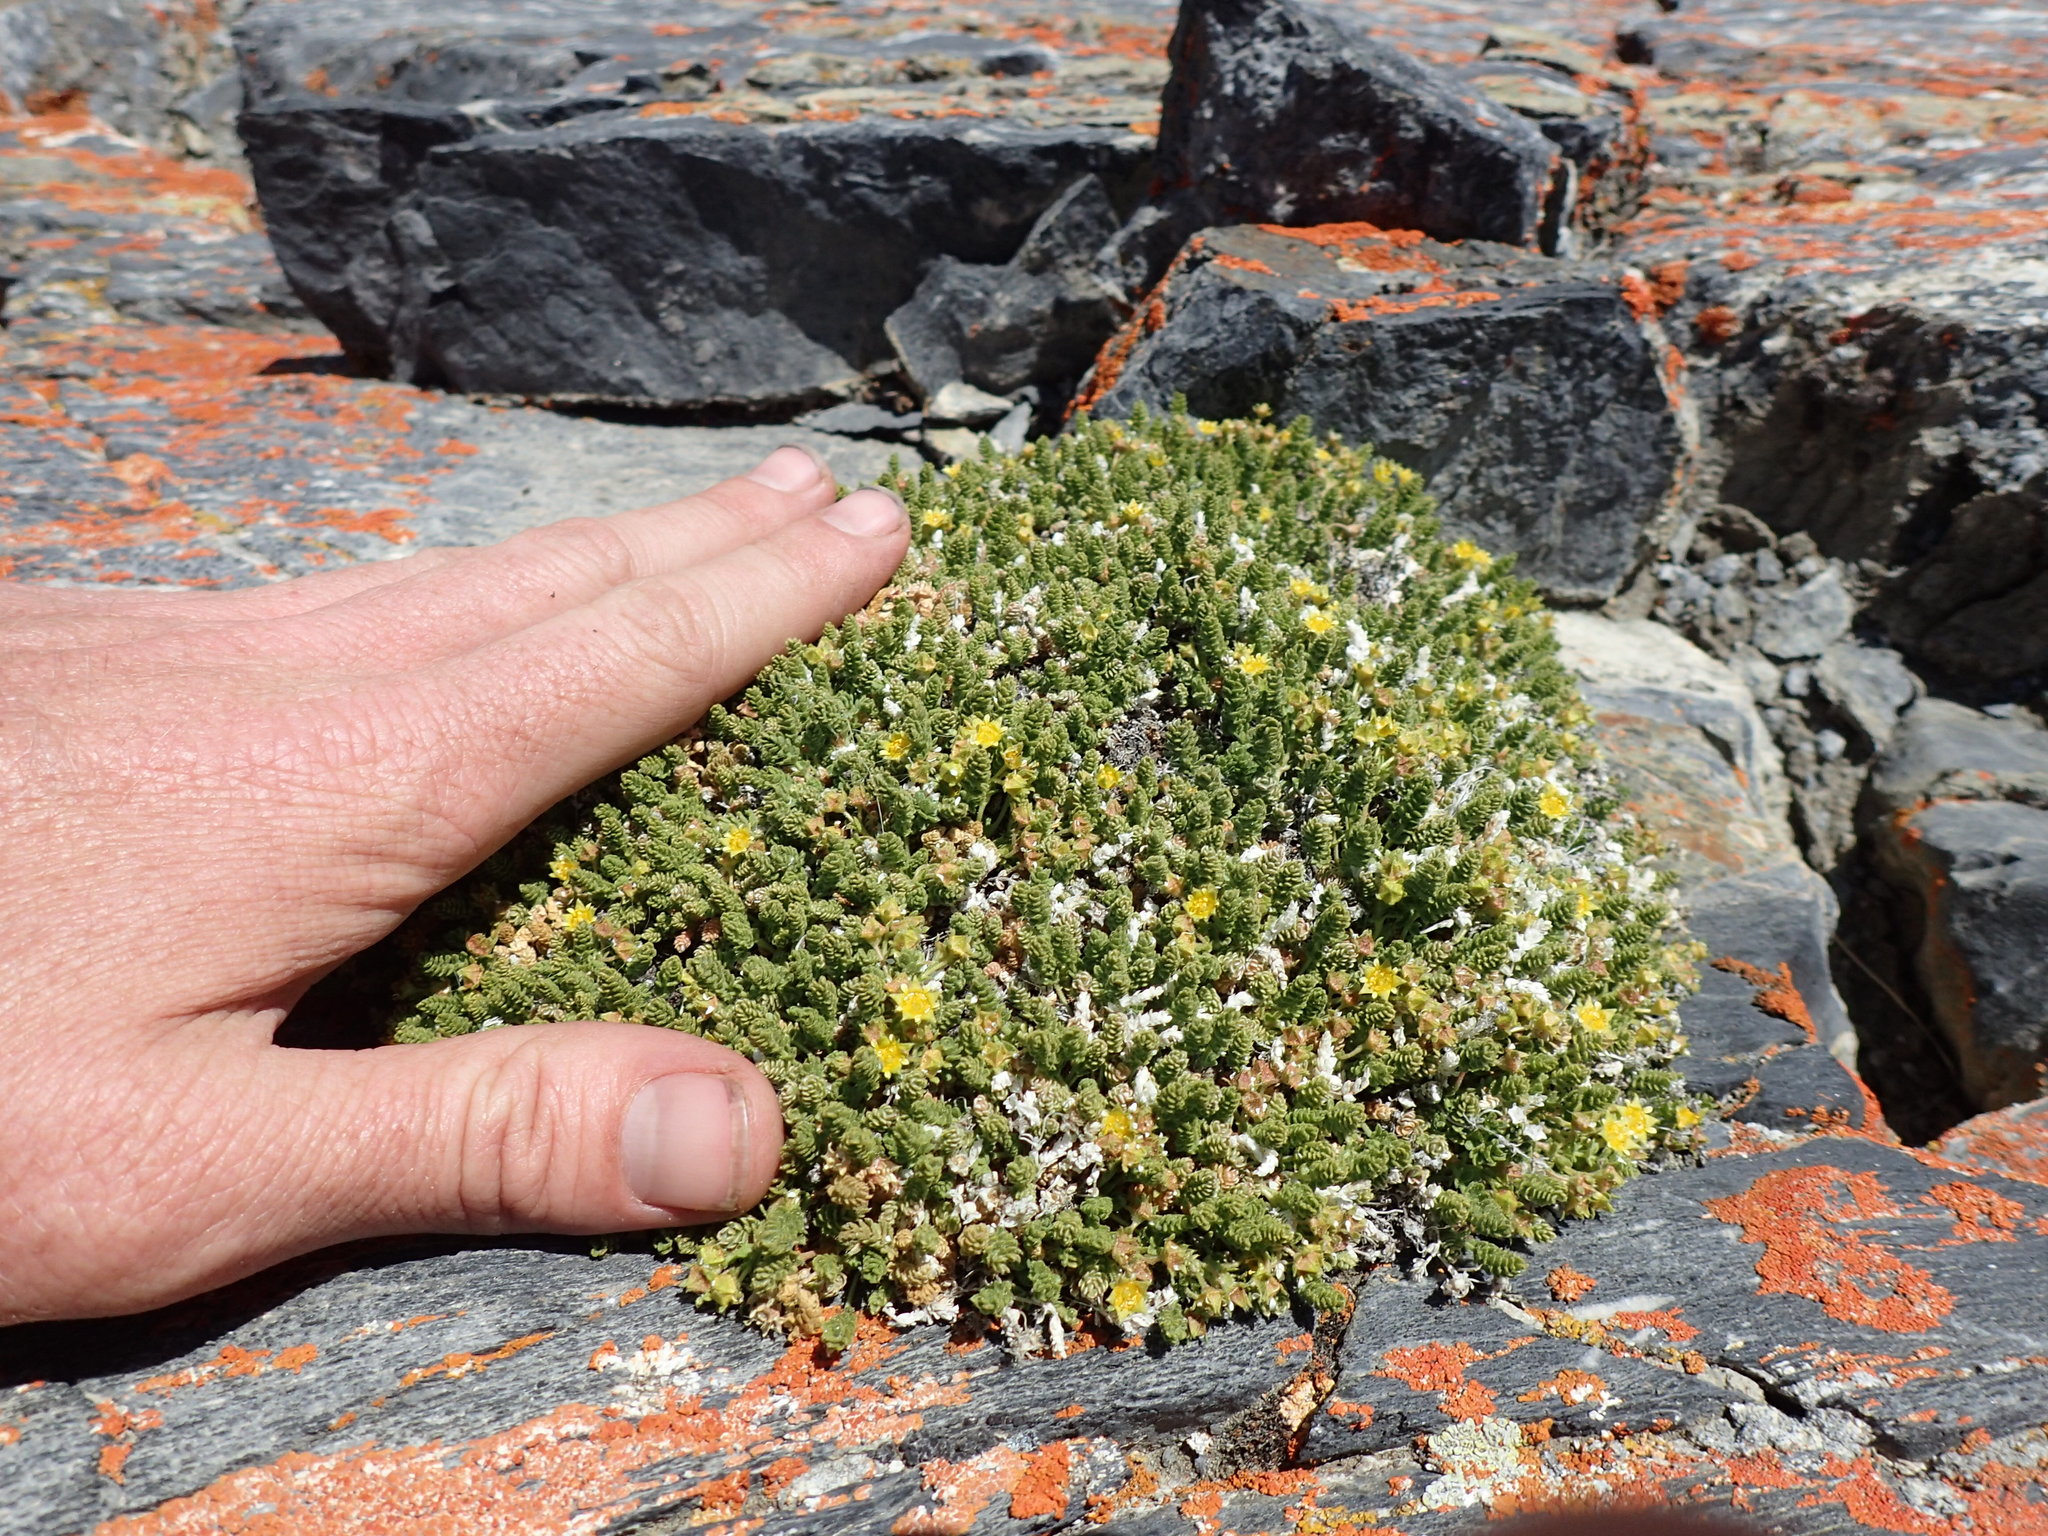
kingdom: Plantae
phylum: Tracheophyta
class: Magnoliopsida
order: Rosales
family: Rosaceae
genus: Potentilla
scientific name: Potentilla shockleyi
